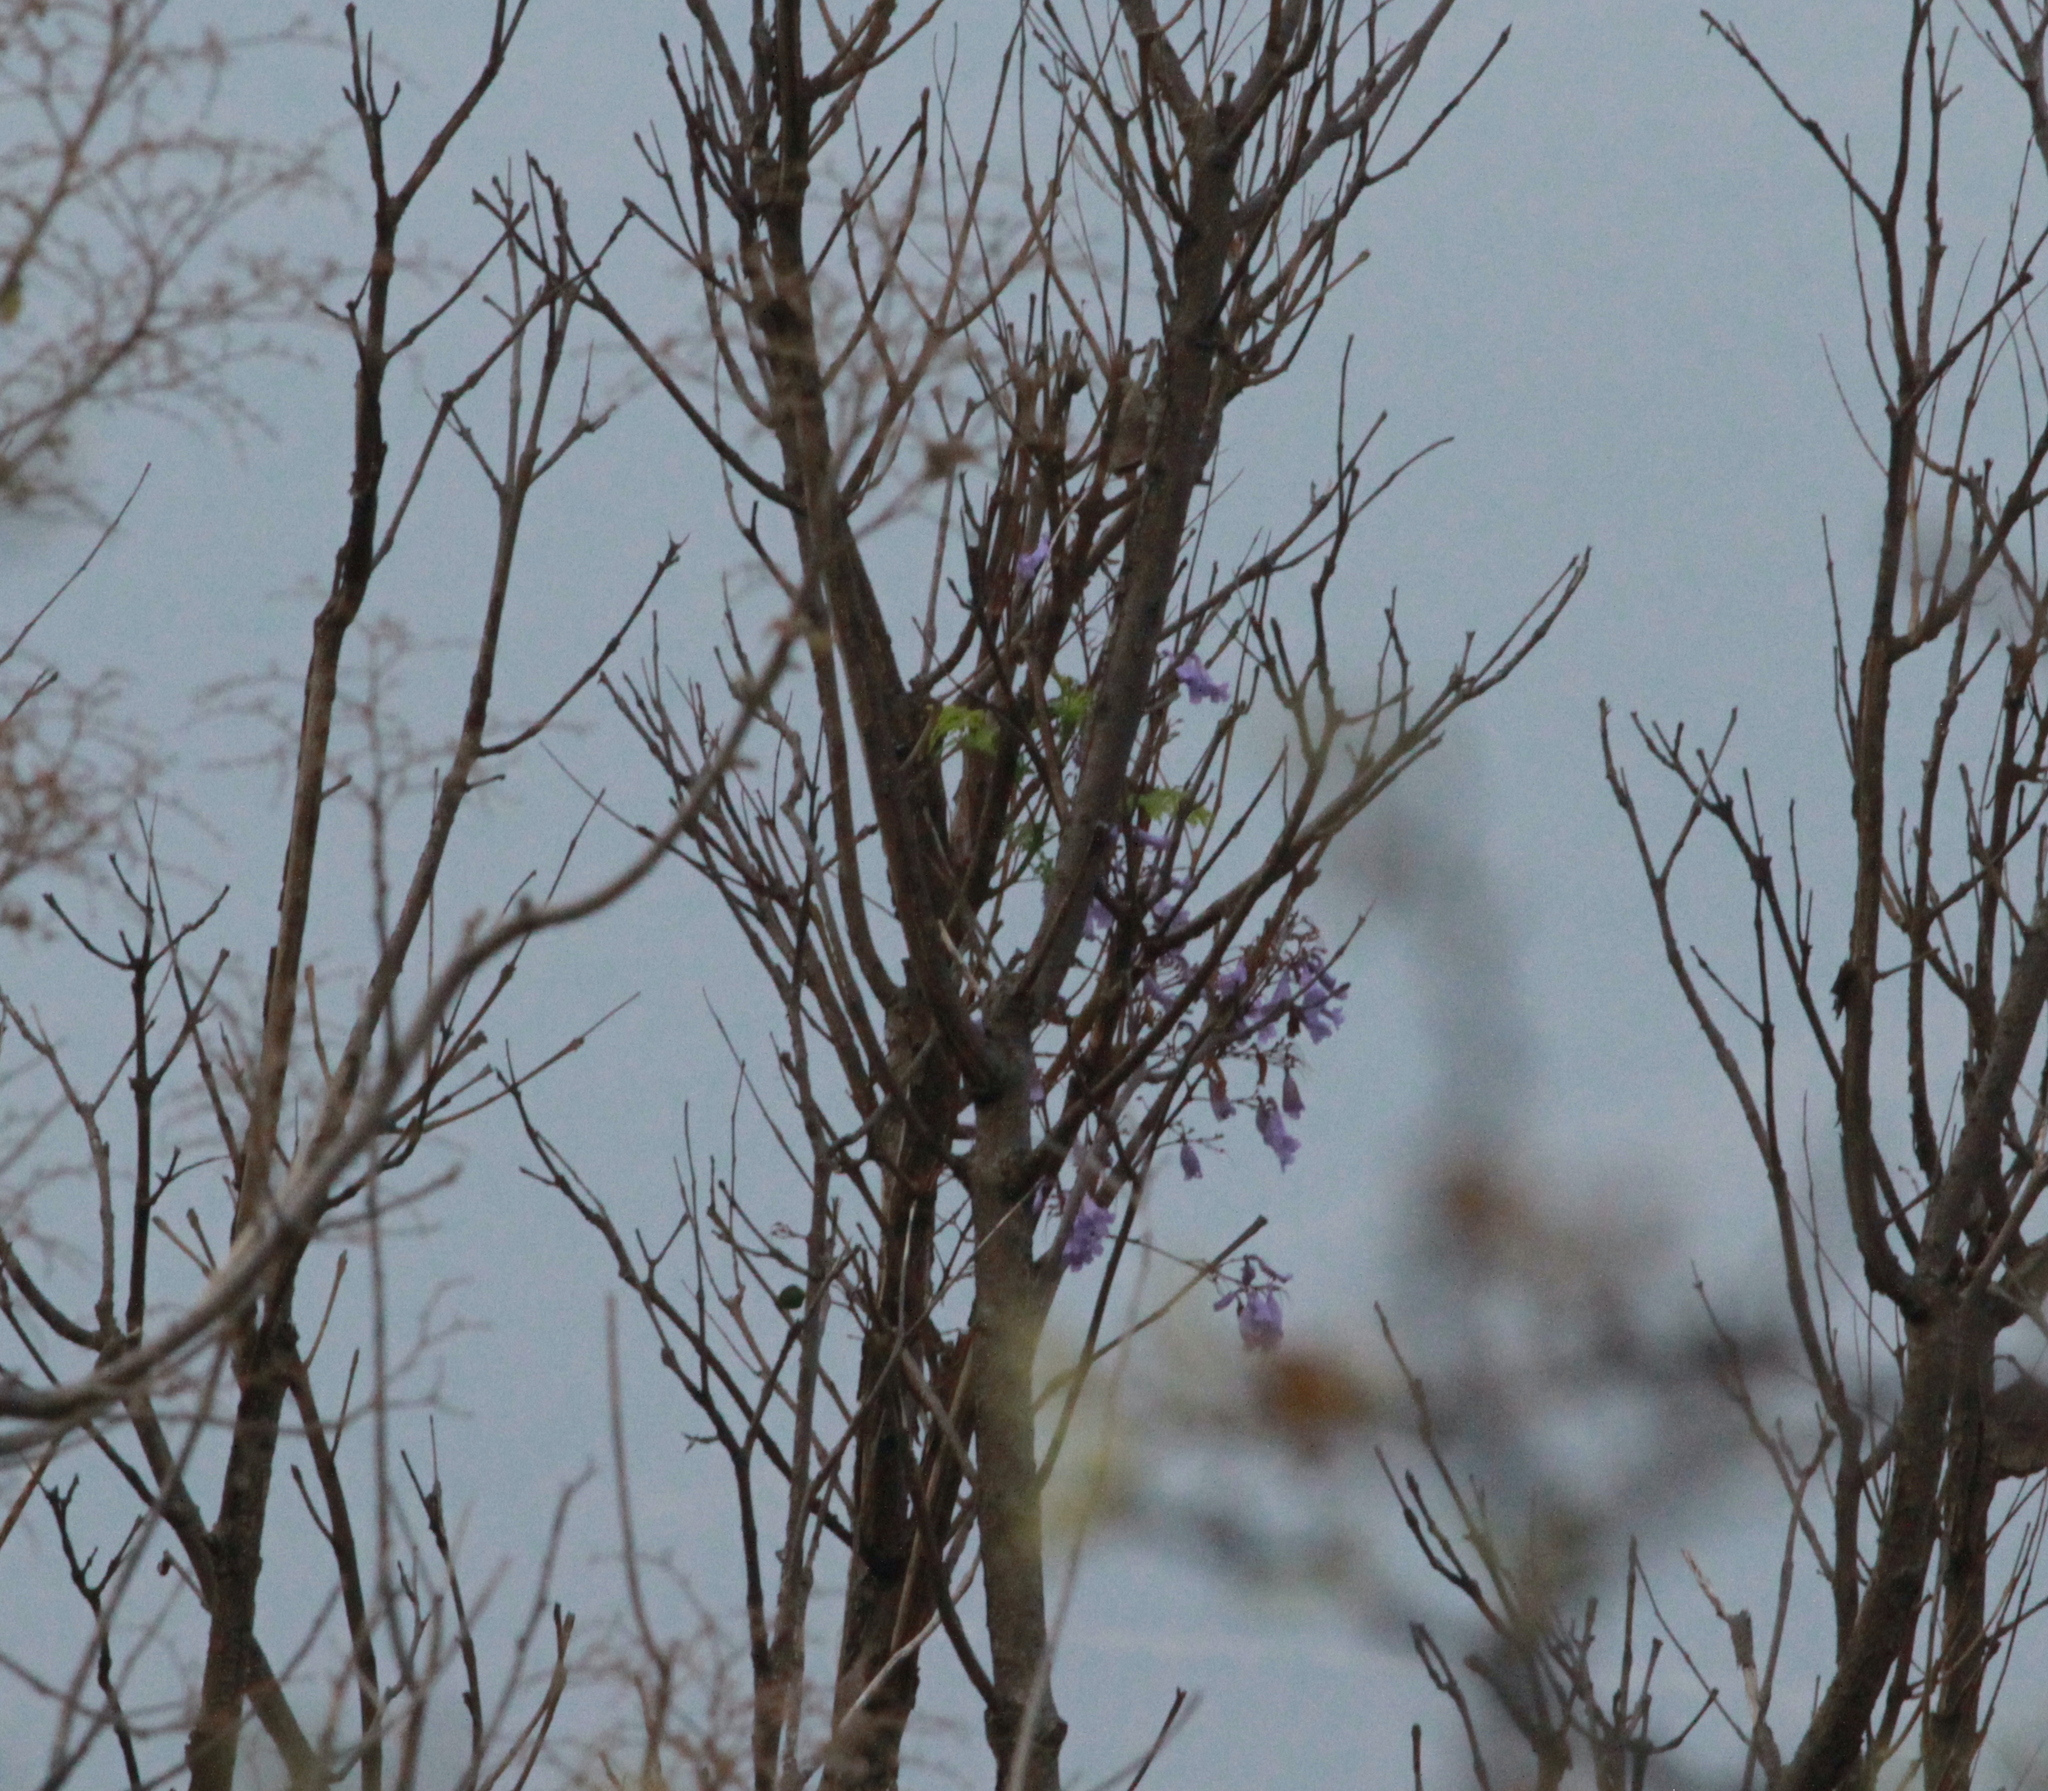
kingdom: Plantae
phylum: Tracheophyta
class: Magnoliopsida
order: Lamiales
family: Bignoniaceae
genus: Jacaranda
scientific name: Jacaranda mimosifolia
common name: Black poui
